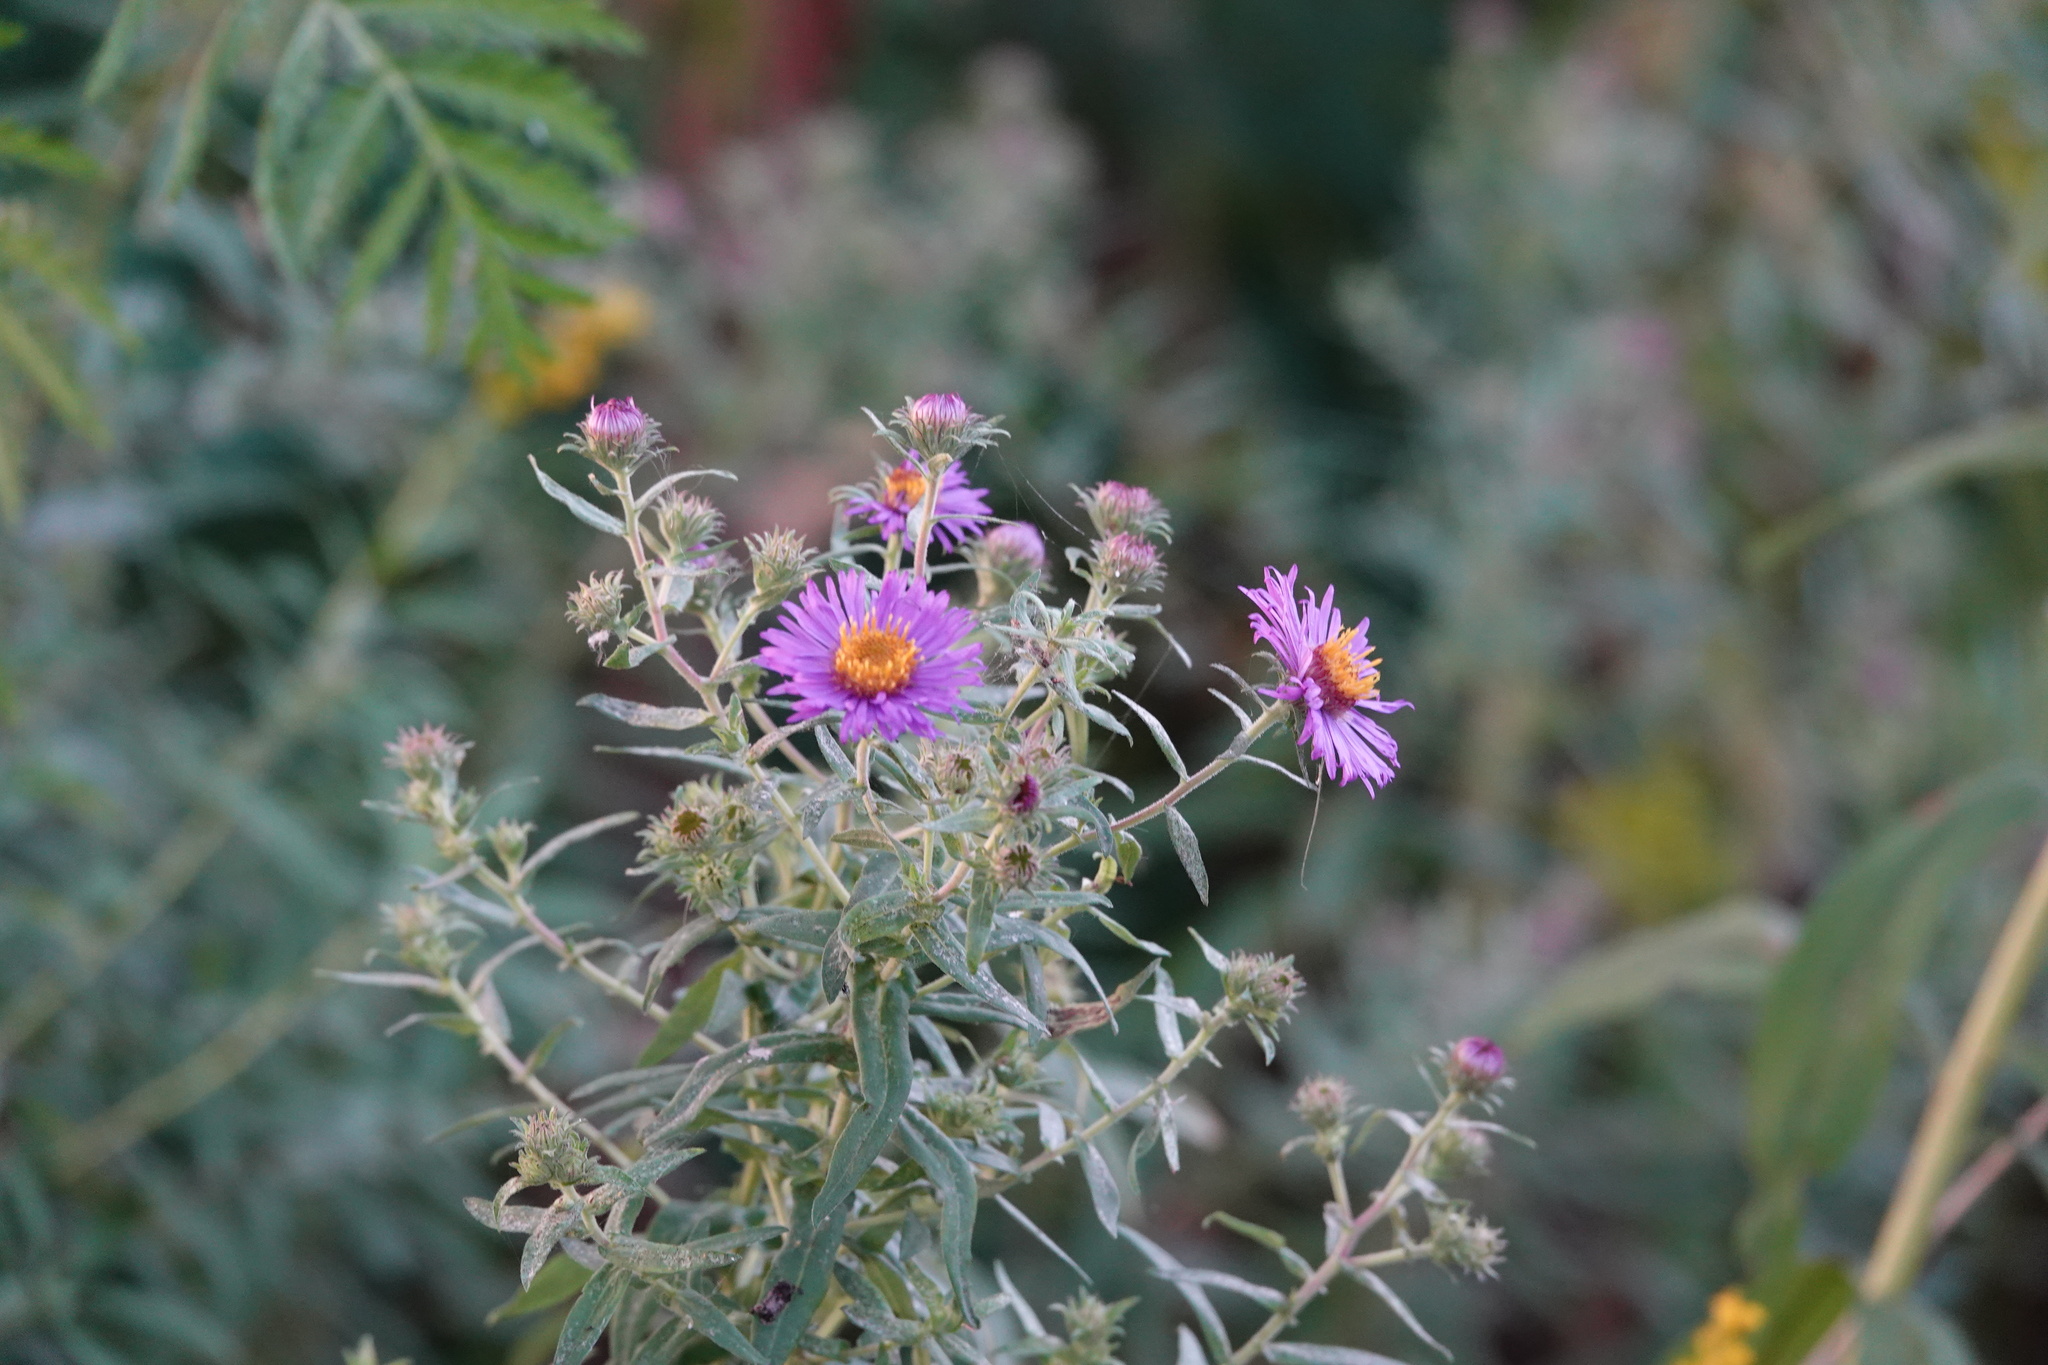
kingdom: Plantae
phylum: Tracheophyta
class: Magnoliopsida
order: Asterales
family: Asteraceae
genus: Symphyotrichum
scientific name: Symphyotrichum novae-angliae
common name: Michaelmas daisy
